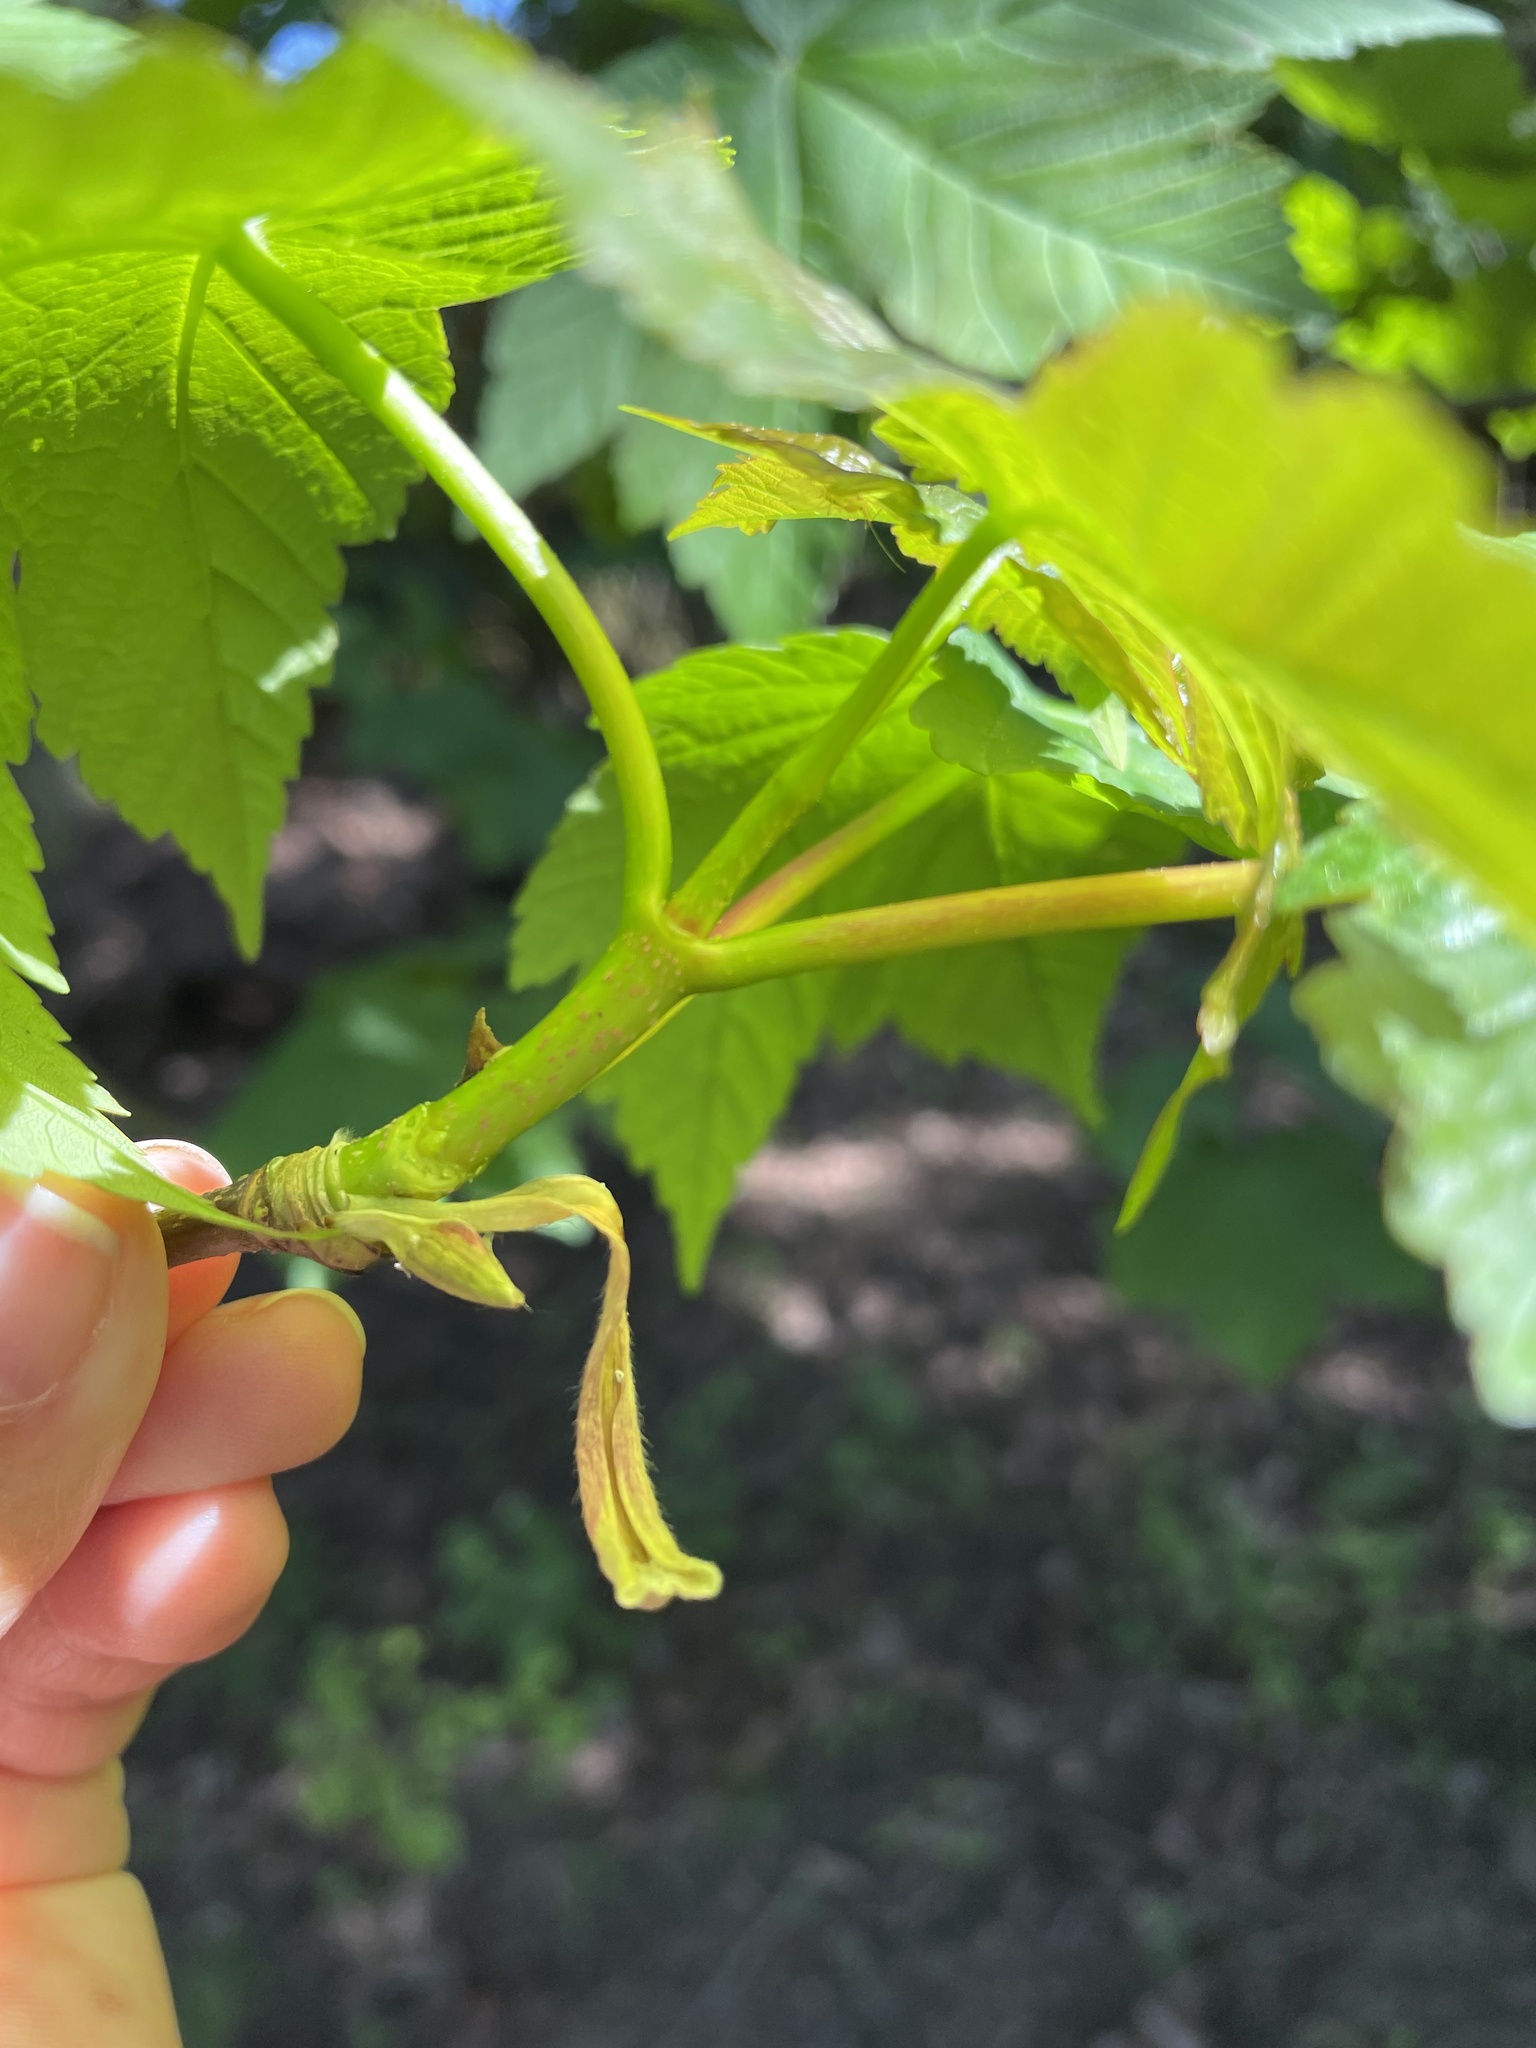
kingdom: Plantae
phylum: Tracheophyta
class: Magnoliopsida
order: Sapindales
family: Sapindaceae
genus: Acer
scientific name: Acer pseudoplatanus
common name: Sycamore
